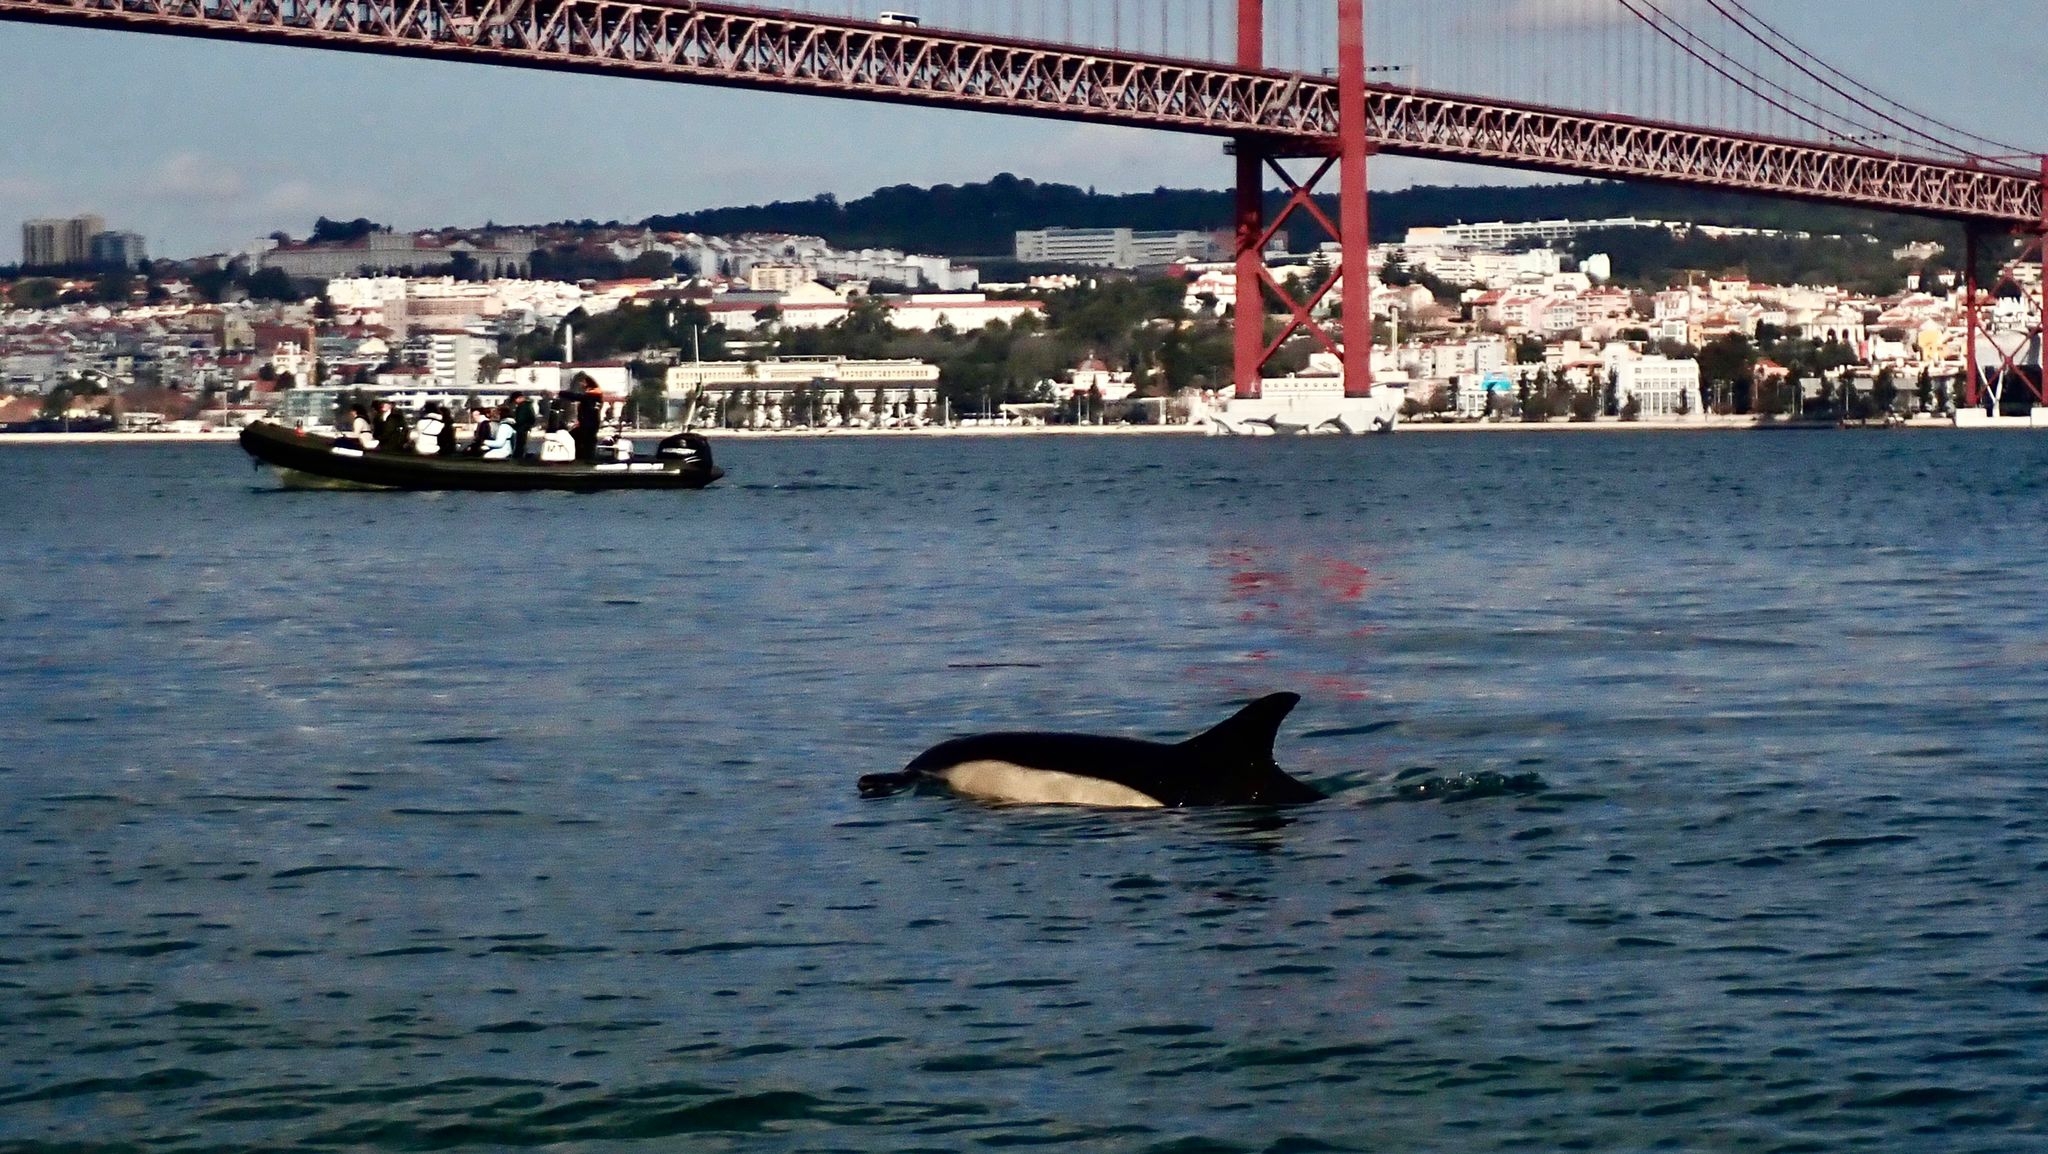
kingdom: Animalia
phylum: Chordata
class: Mammalia
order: Cetacea
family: Delphinidae
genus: Delphinus
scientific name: Delphinus delphis
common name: Common dolphin
